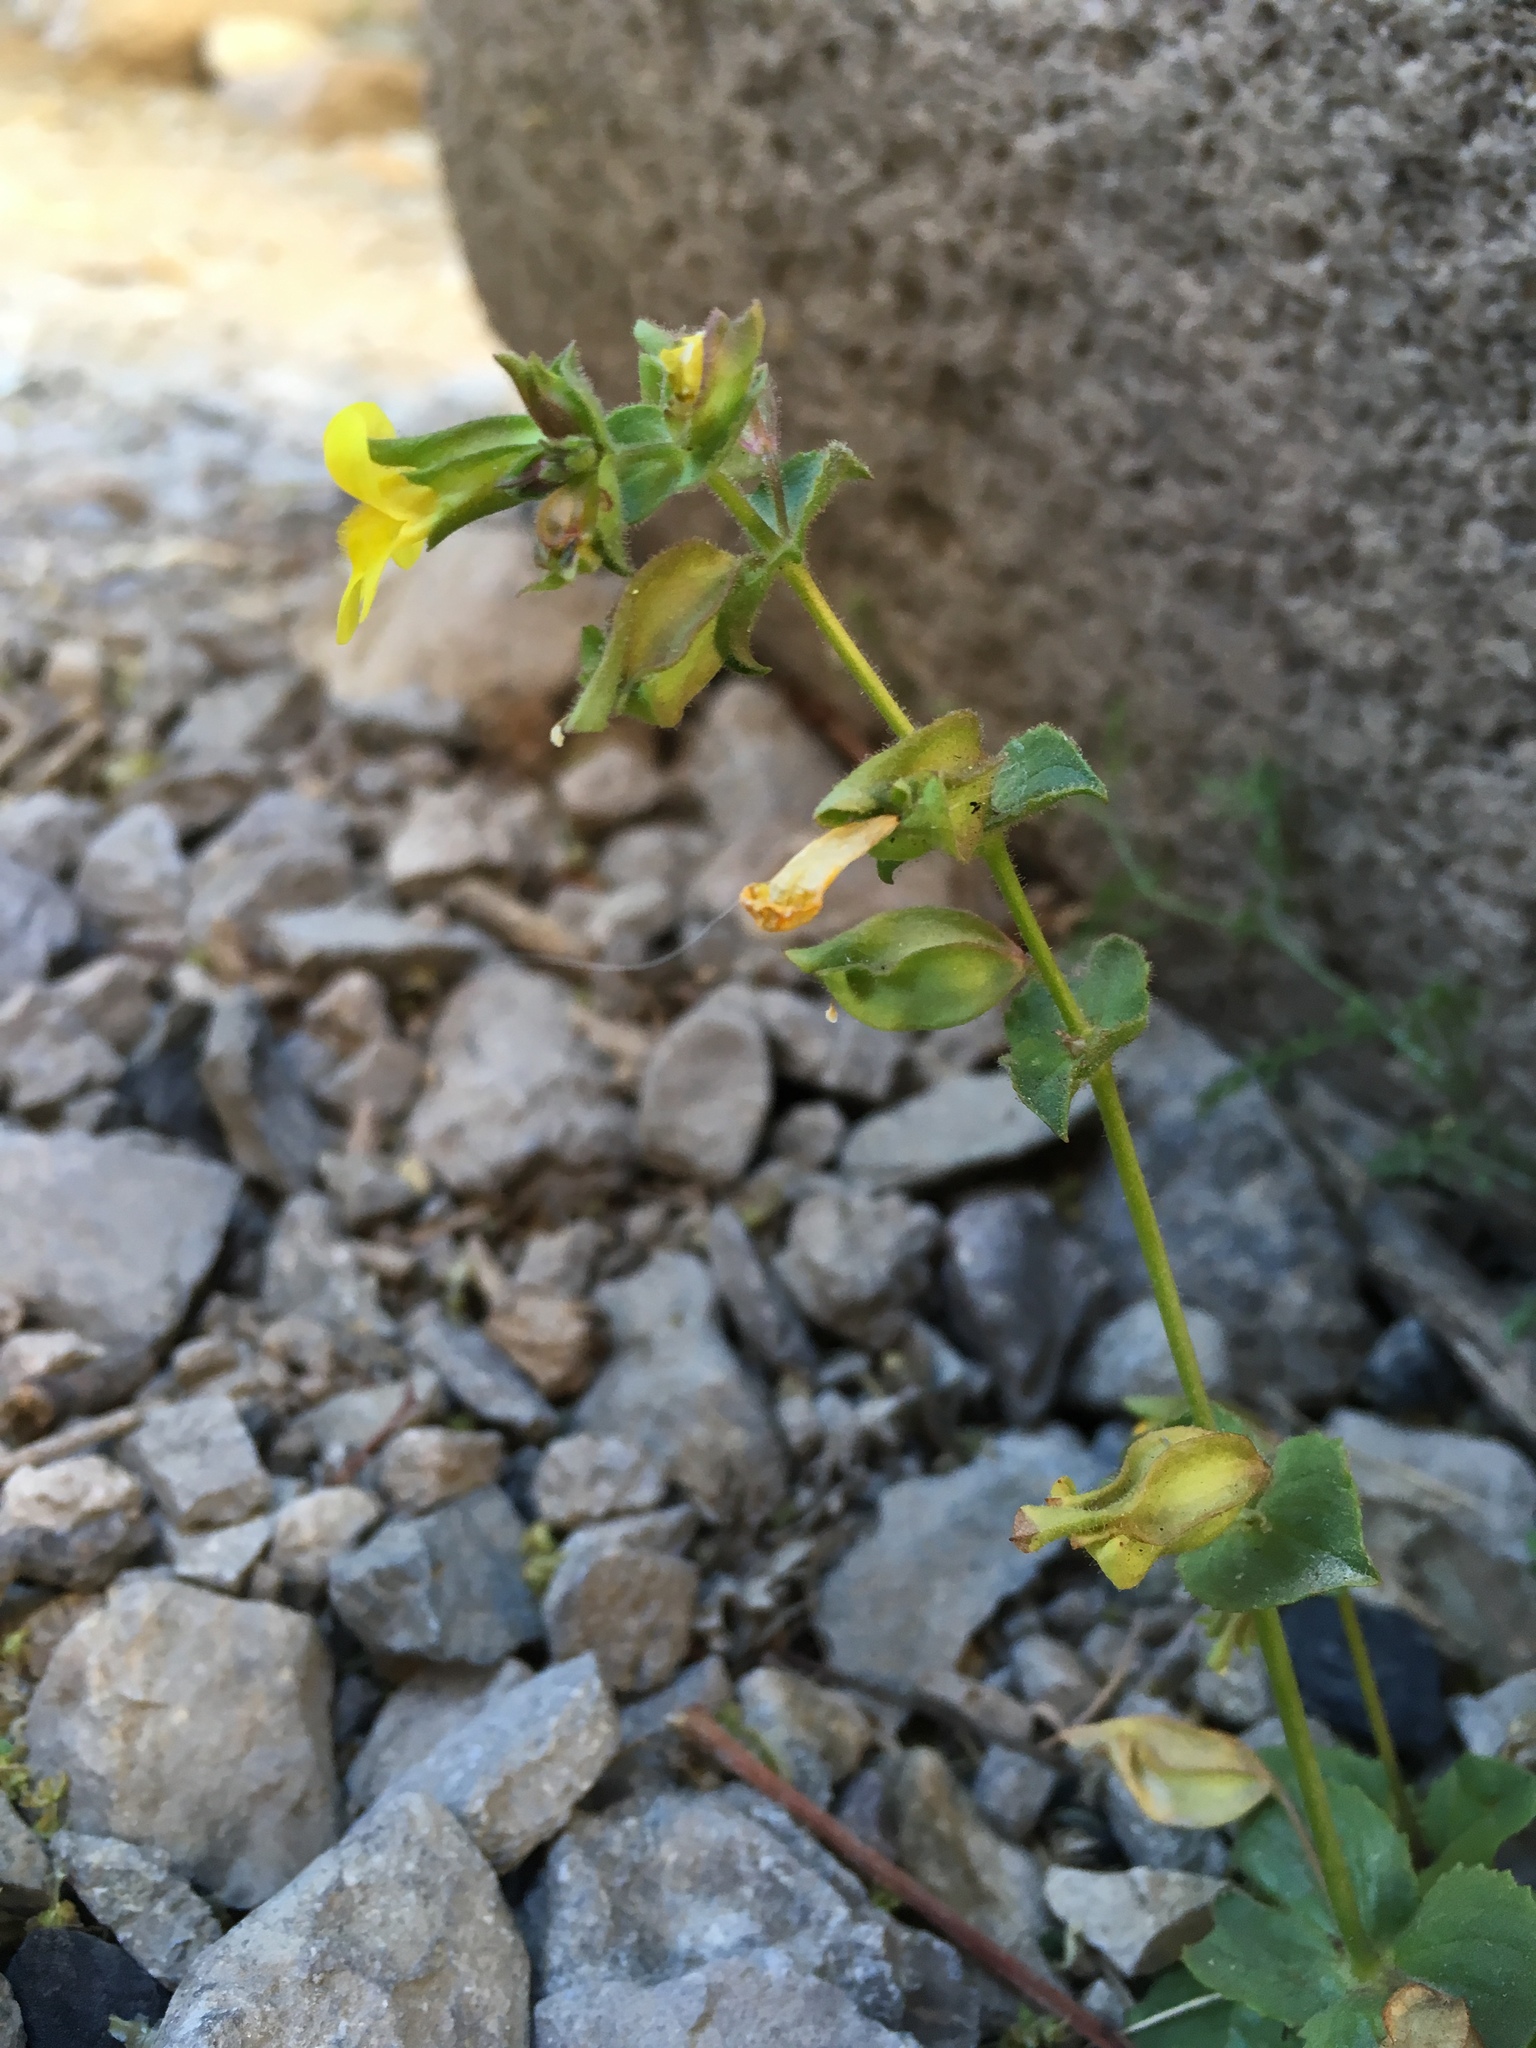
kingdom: Plantae
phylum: Tracheophyta
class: Magnoliopsida
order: Lamiales
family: Phrymaceae
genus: Erythranthe
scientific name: Erythranthe cordata
